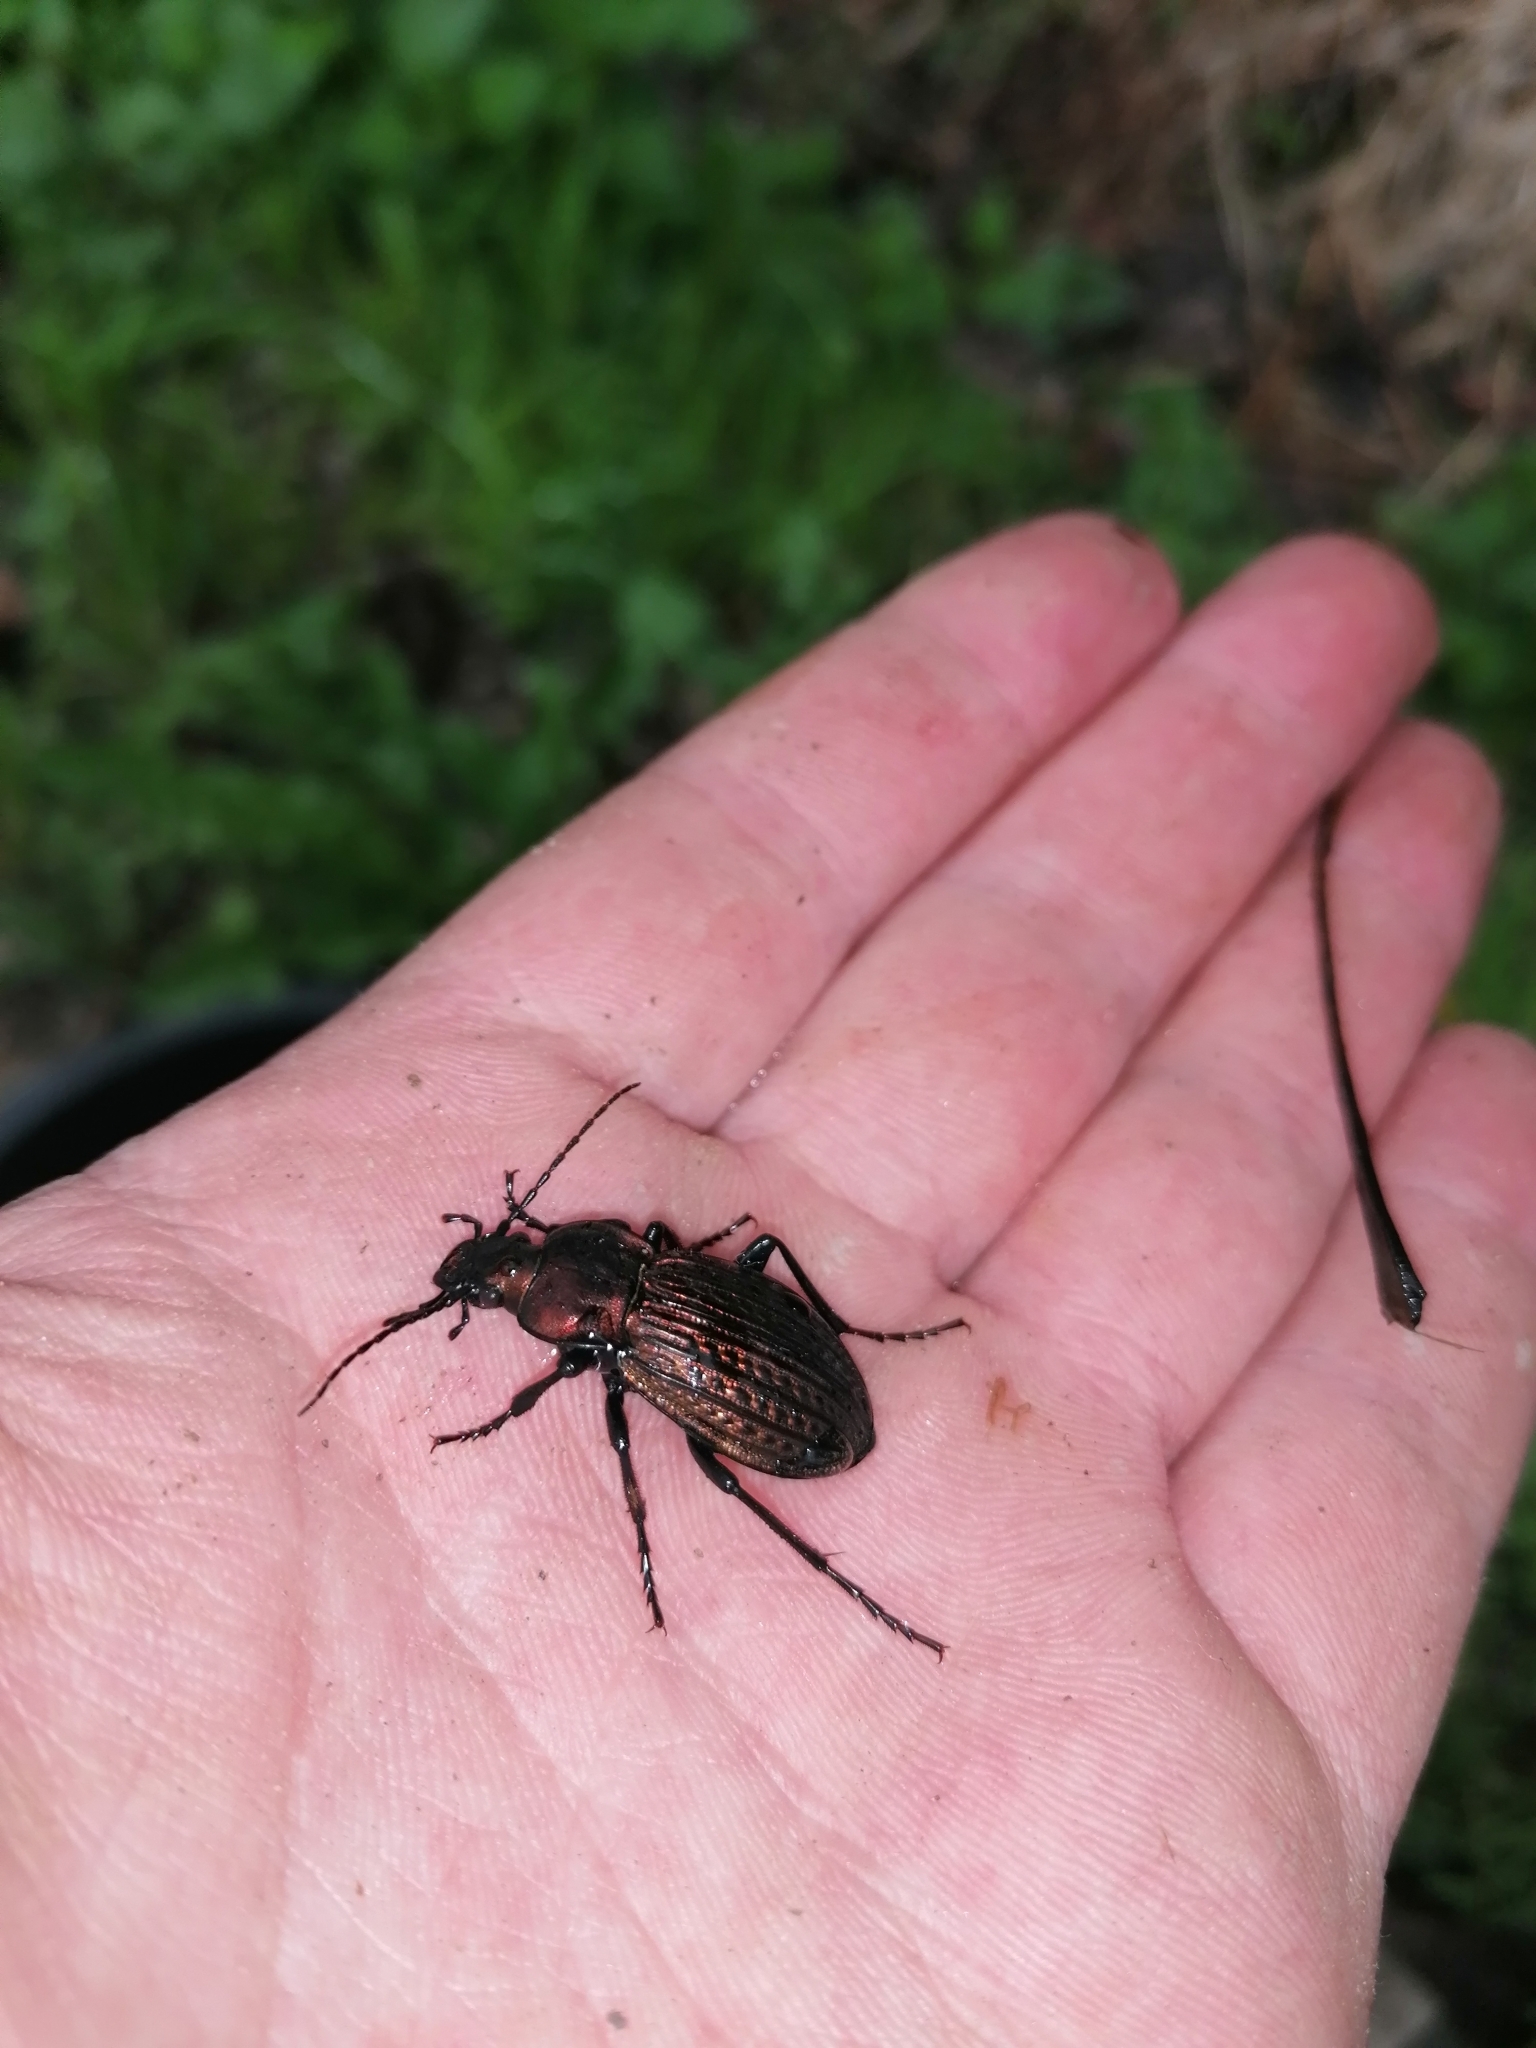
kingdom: Animalia
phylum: Arthropoda
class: Insecta
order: Coleoptera
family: Carabidae
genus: Carabus
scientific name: Carabus ulrichii
